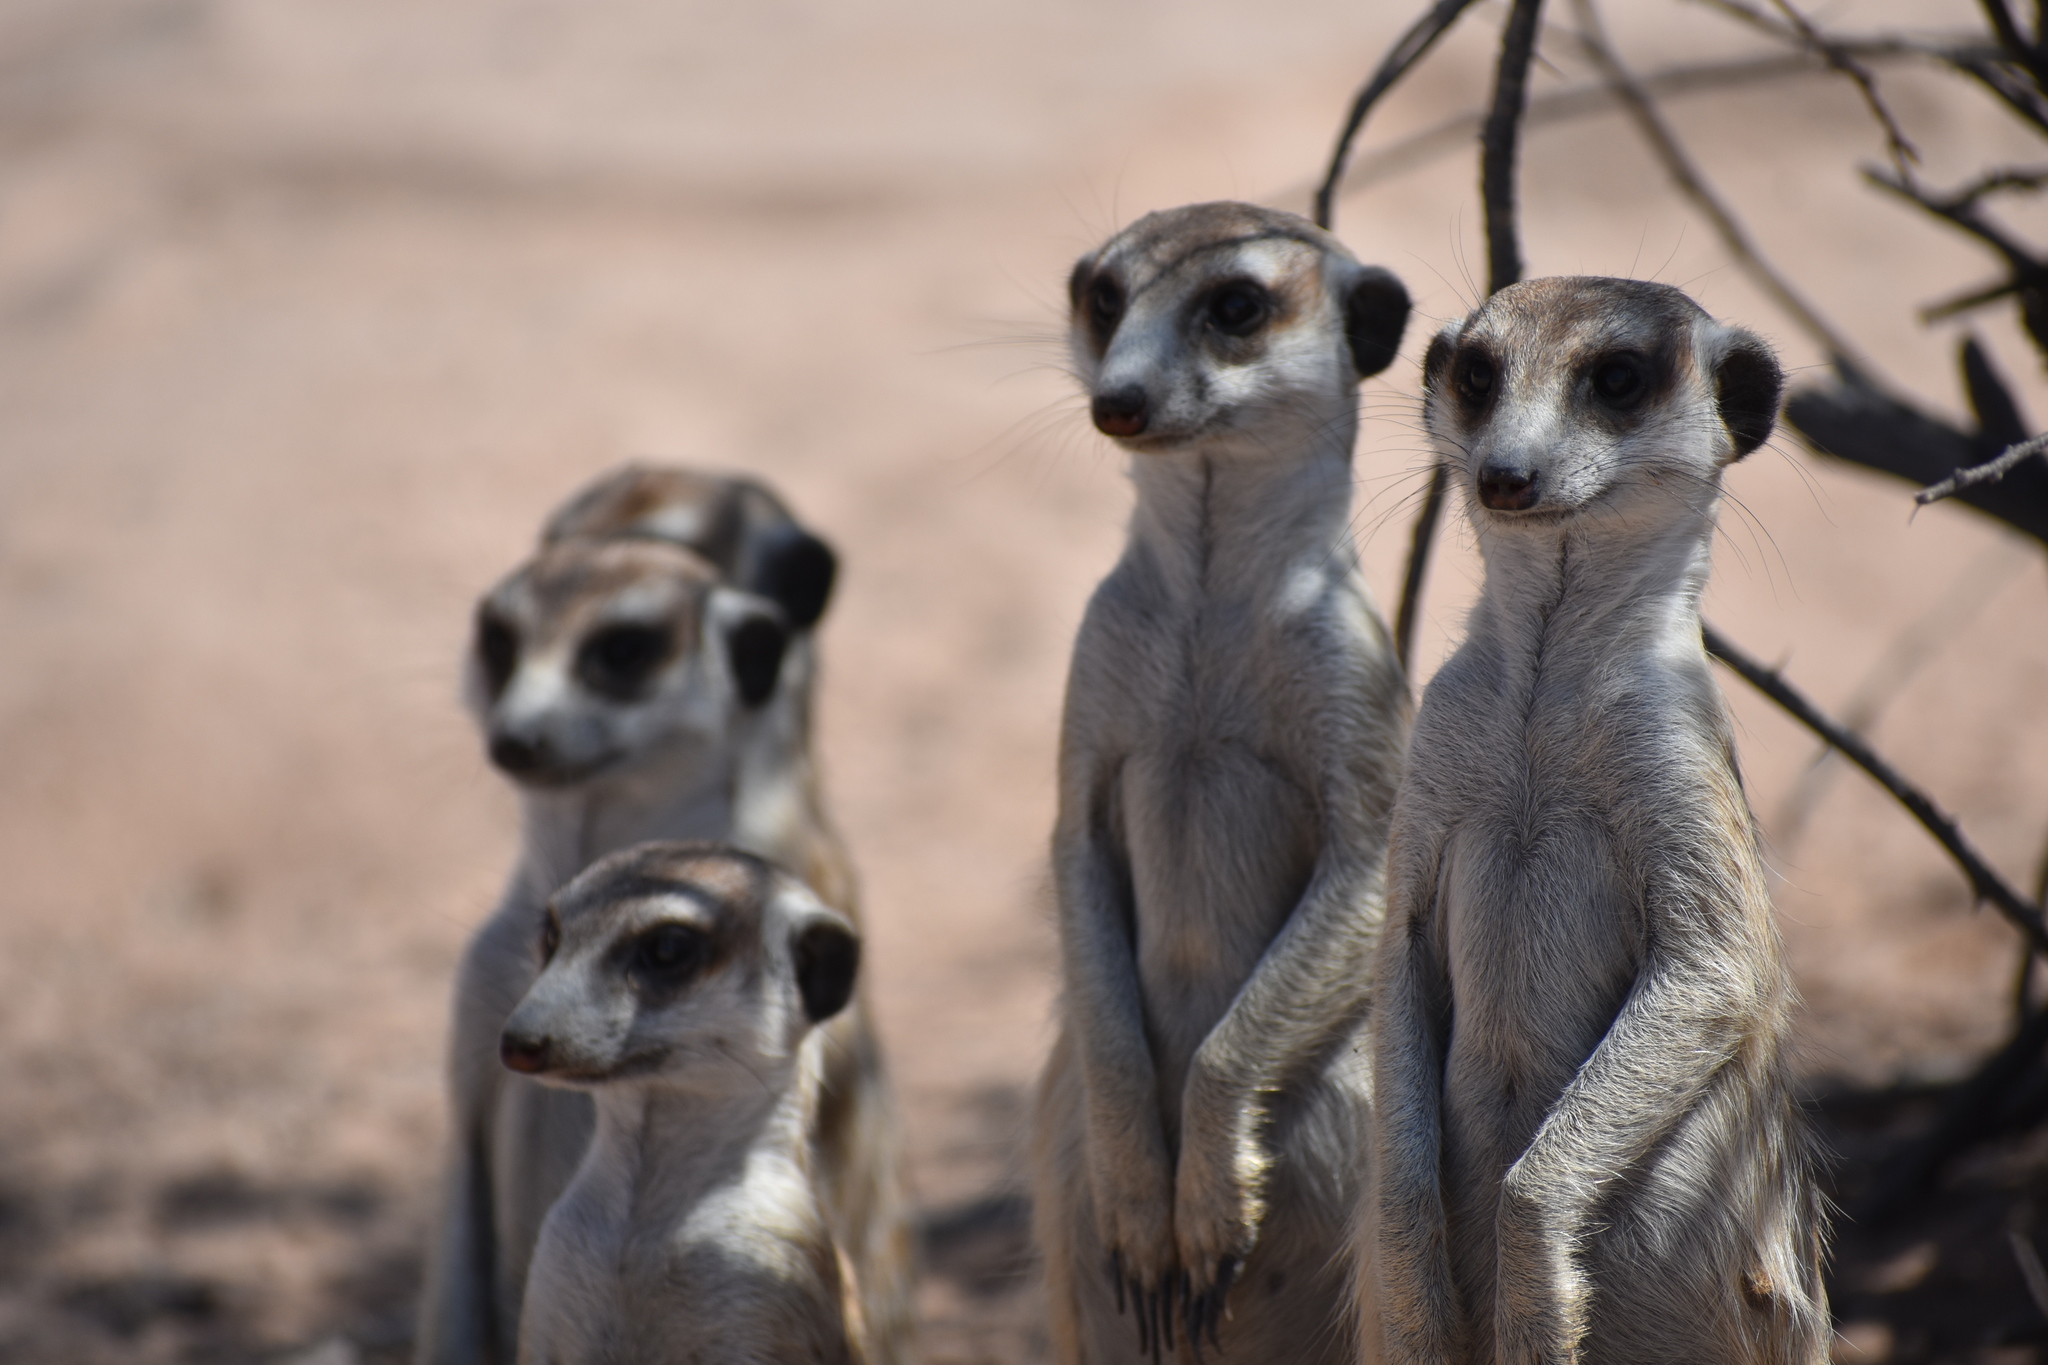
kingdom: Animalia
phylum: Chordata
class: Mammalia
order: Carnivora
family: Herpestidae
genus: Suricata
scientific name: Suricata suricatta
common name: Meerkat
